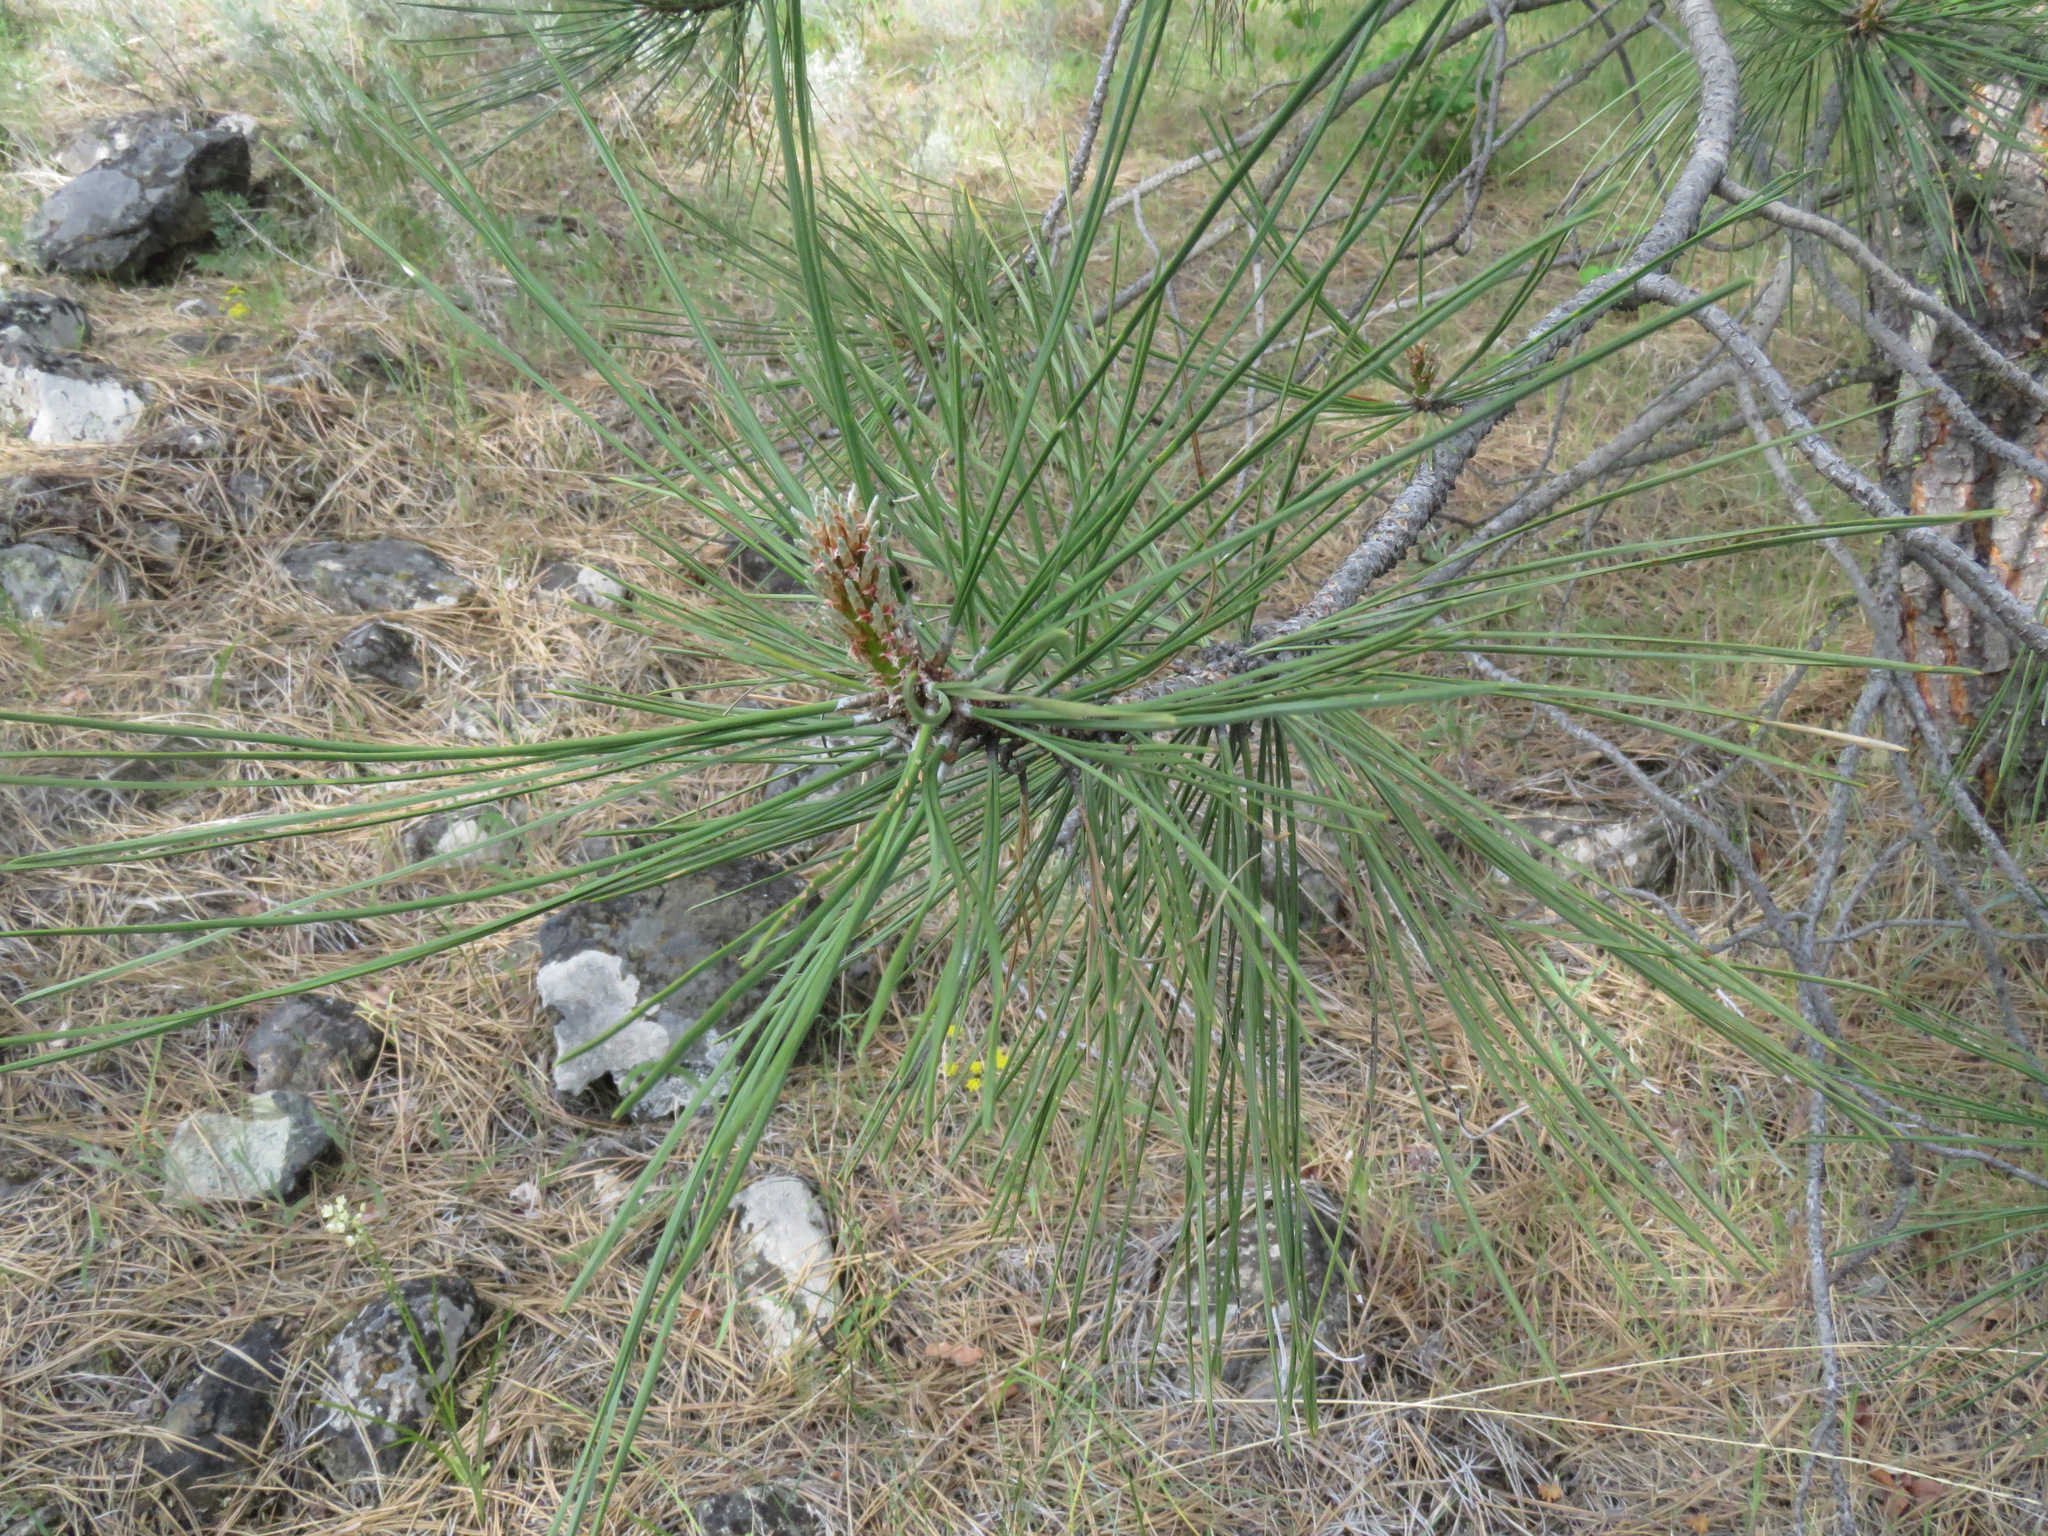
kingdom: Plantae
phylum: Tracheophyta
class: Pinopsida
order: Pinales
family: Pinaceae
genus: Pinus
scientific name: Pinus ponderosa
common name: Western yellow-pine
